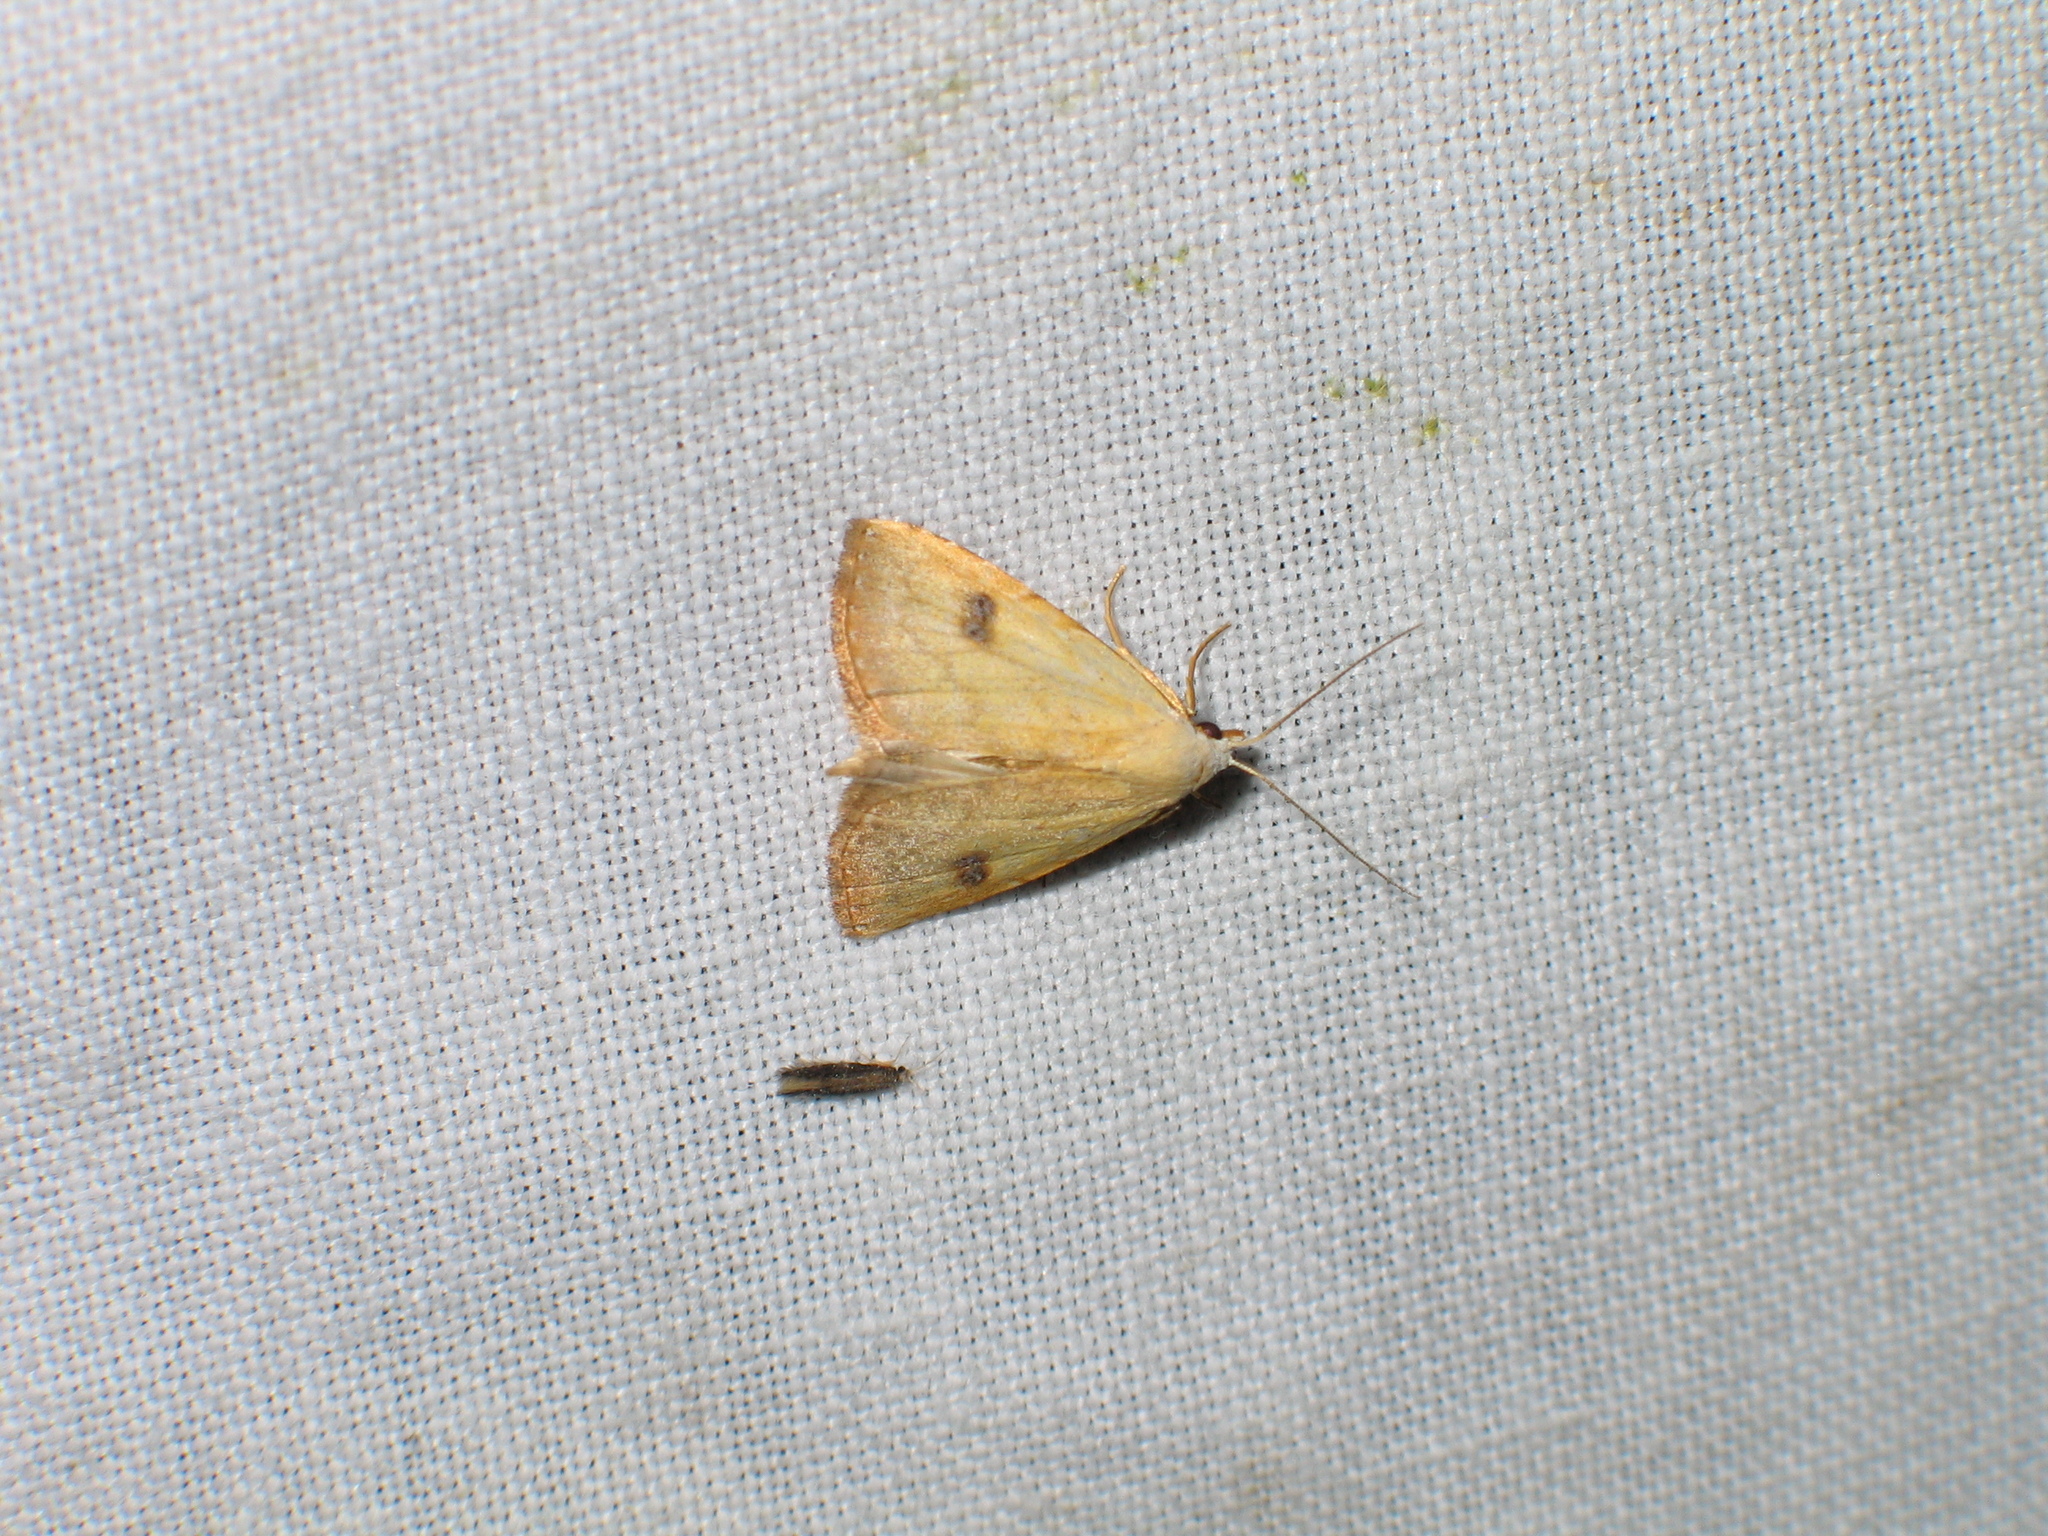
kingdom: Animalia
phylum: Arthropoda
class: Insecta
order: Lepidoptera
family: Erebidae
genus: Rivula
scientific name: Rivula sericealis
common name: Straw dot
